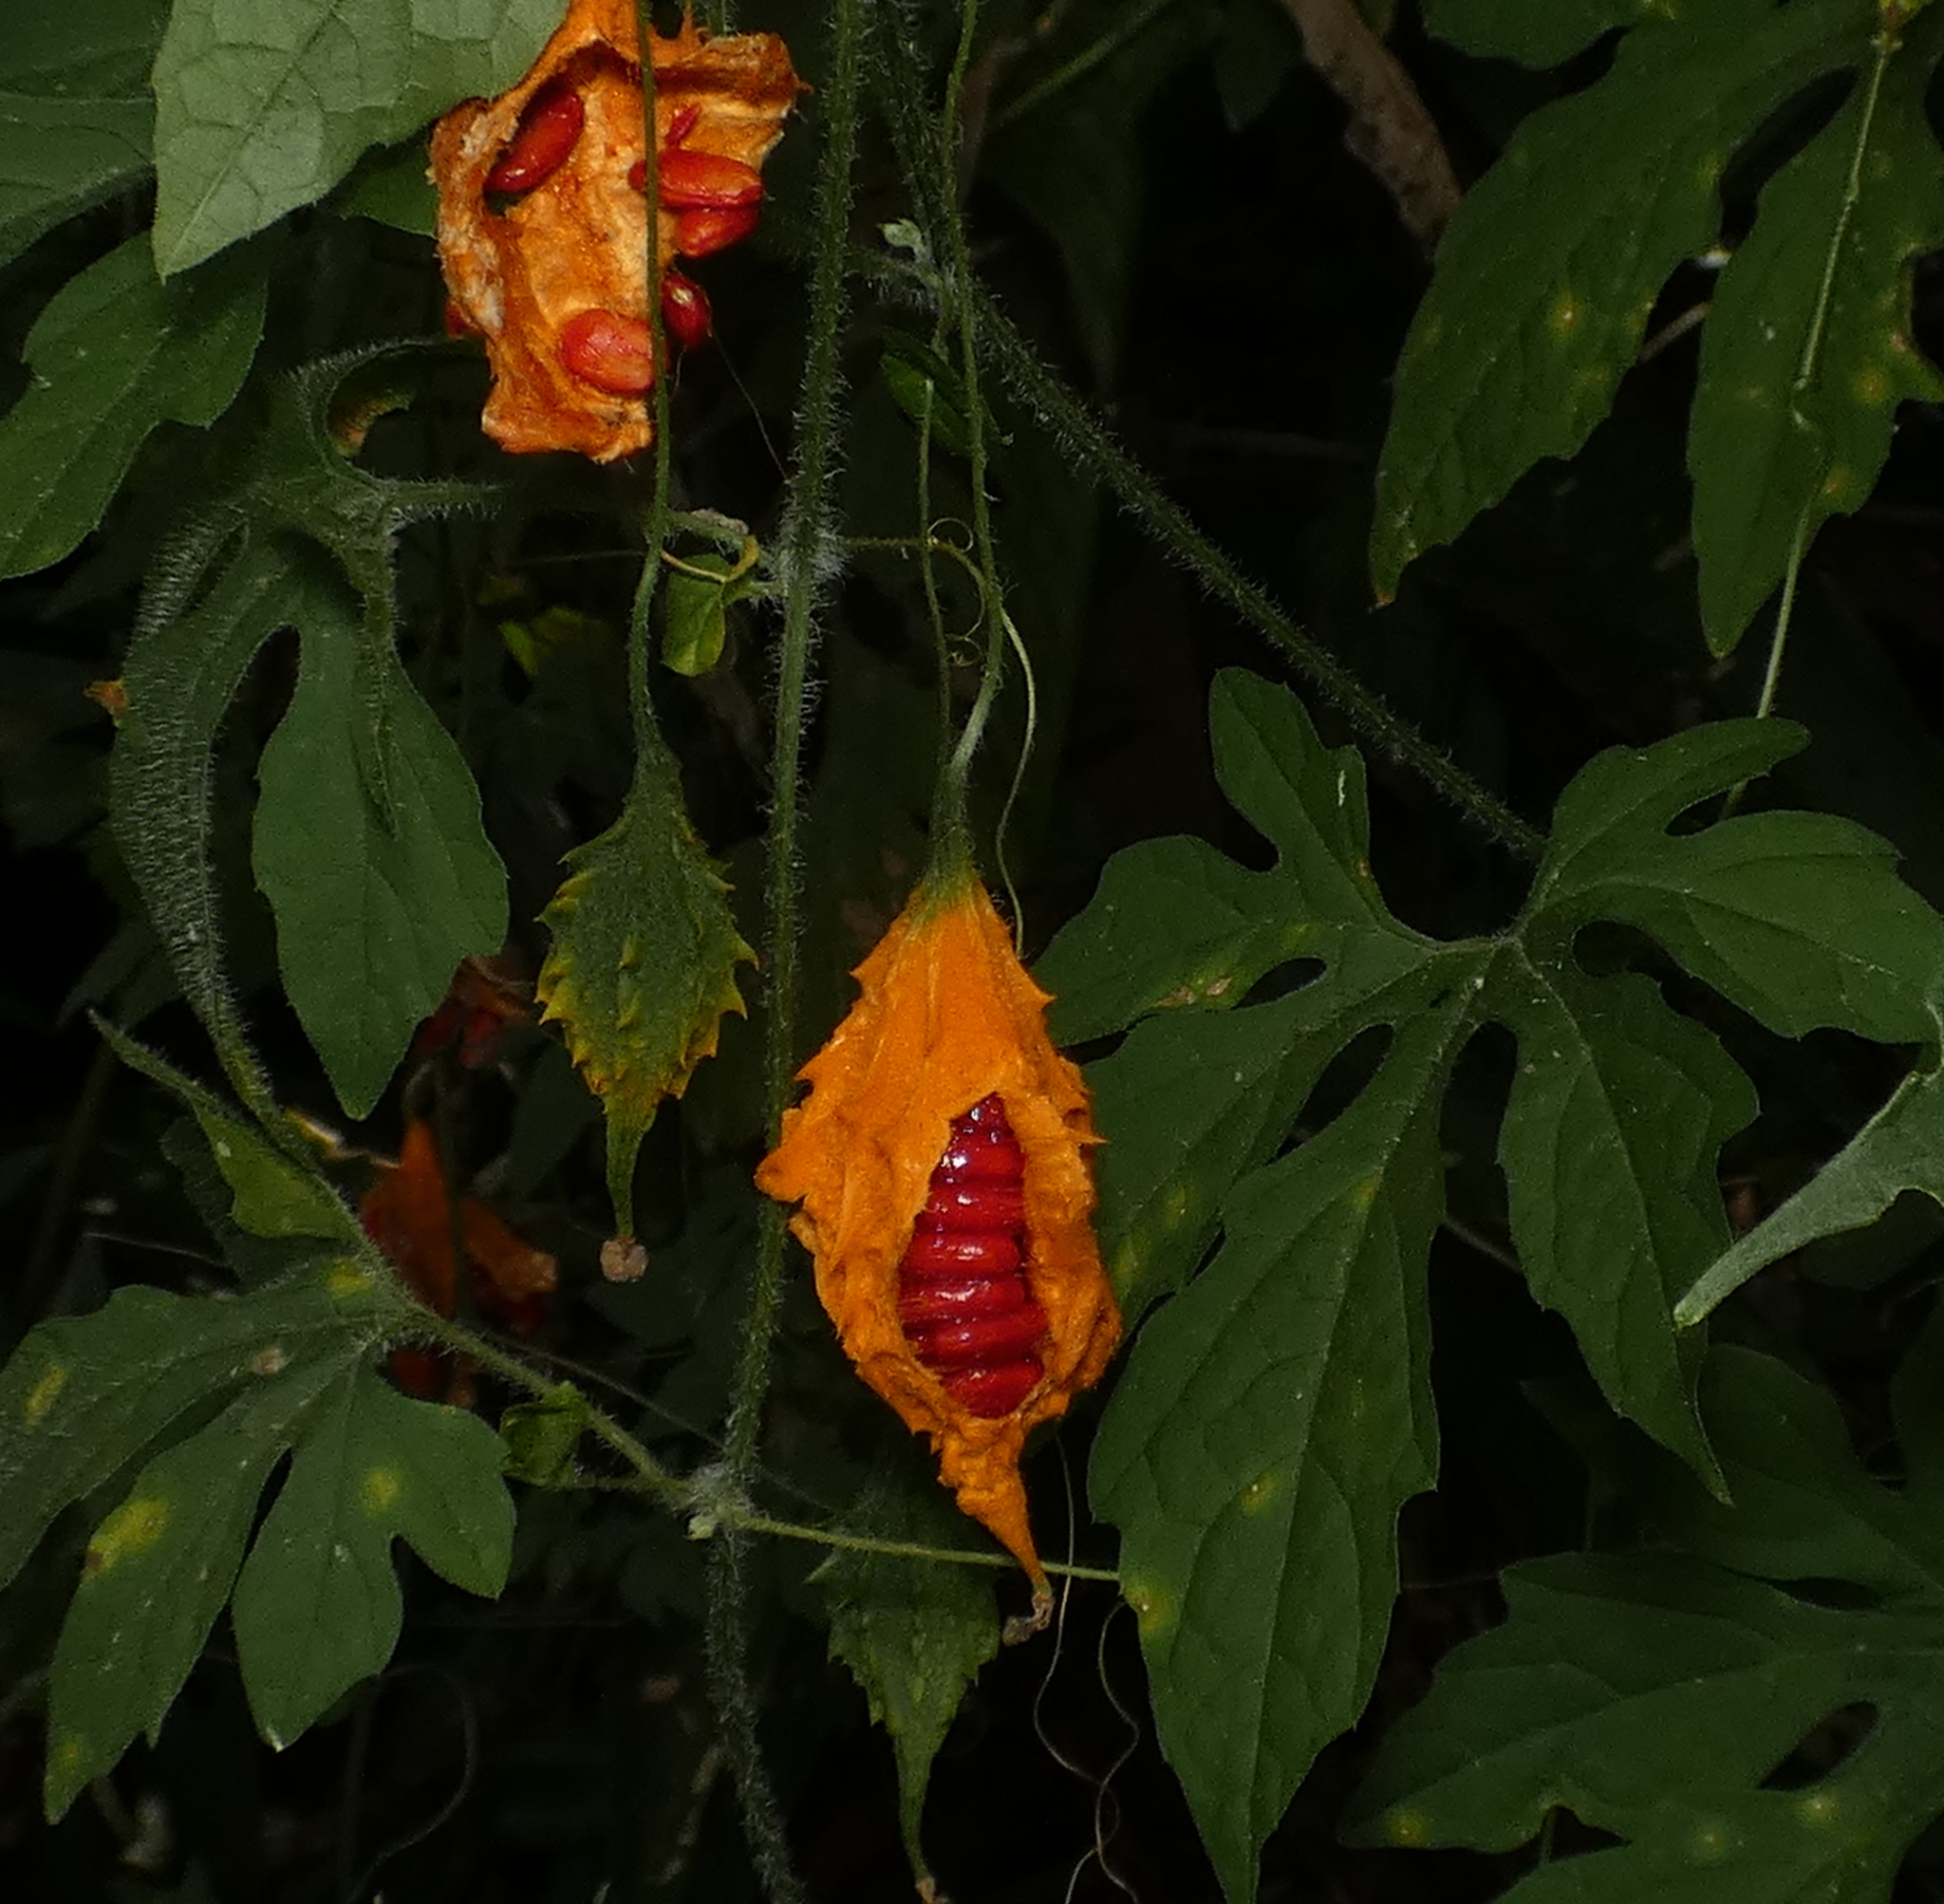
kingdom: Plantae
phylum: Tracheophyta
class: Magnoliopsida
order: Cucurbitales
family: Cucurbitaceae
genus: Momordica
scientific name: Momordica charantia
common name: Balsampear
